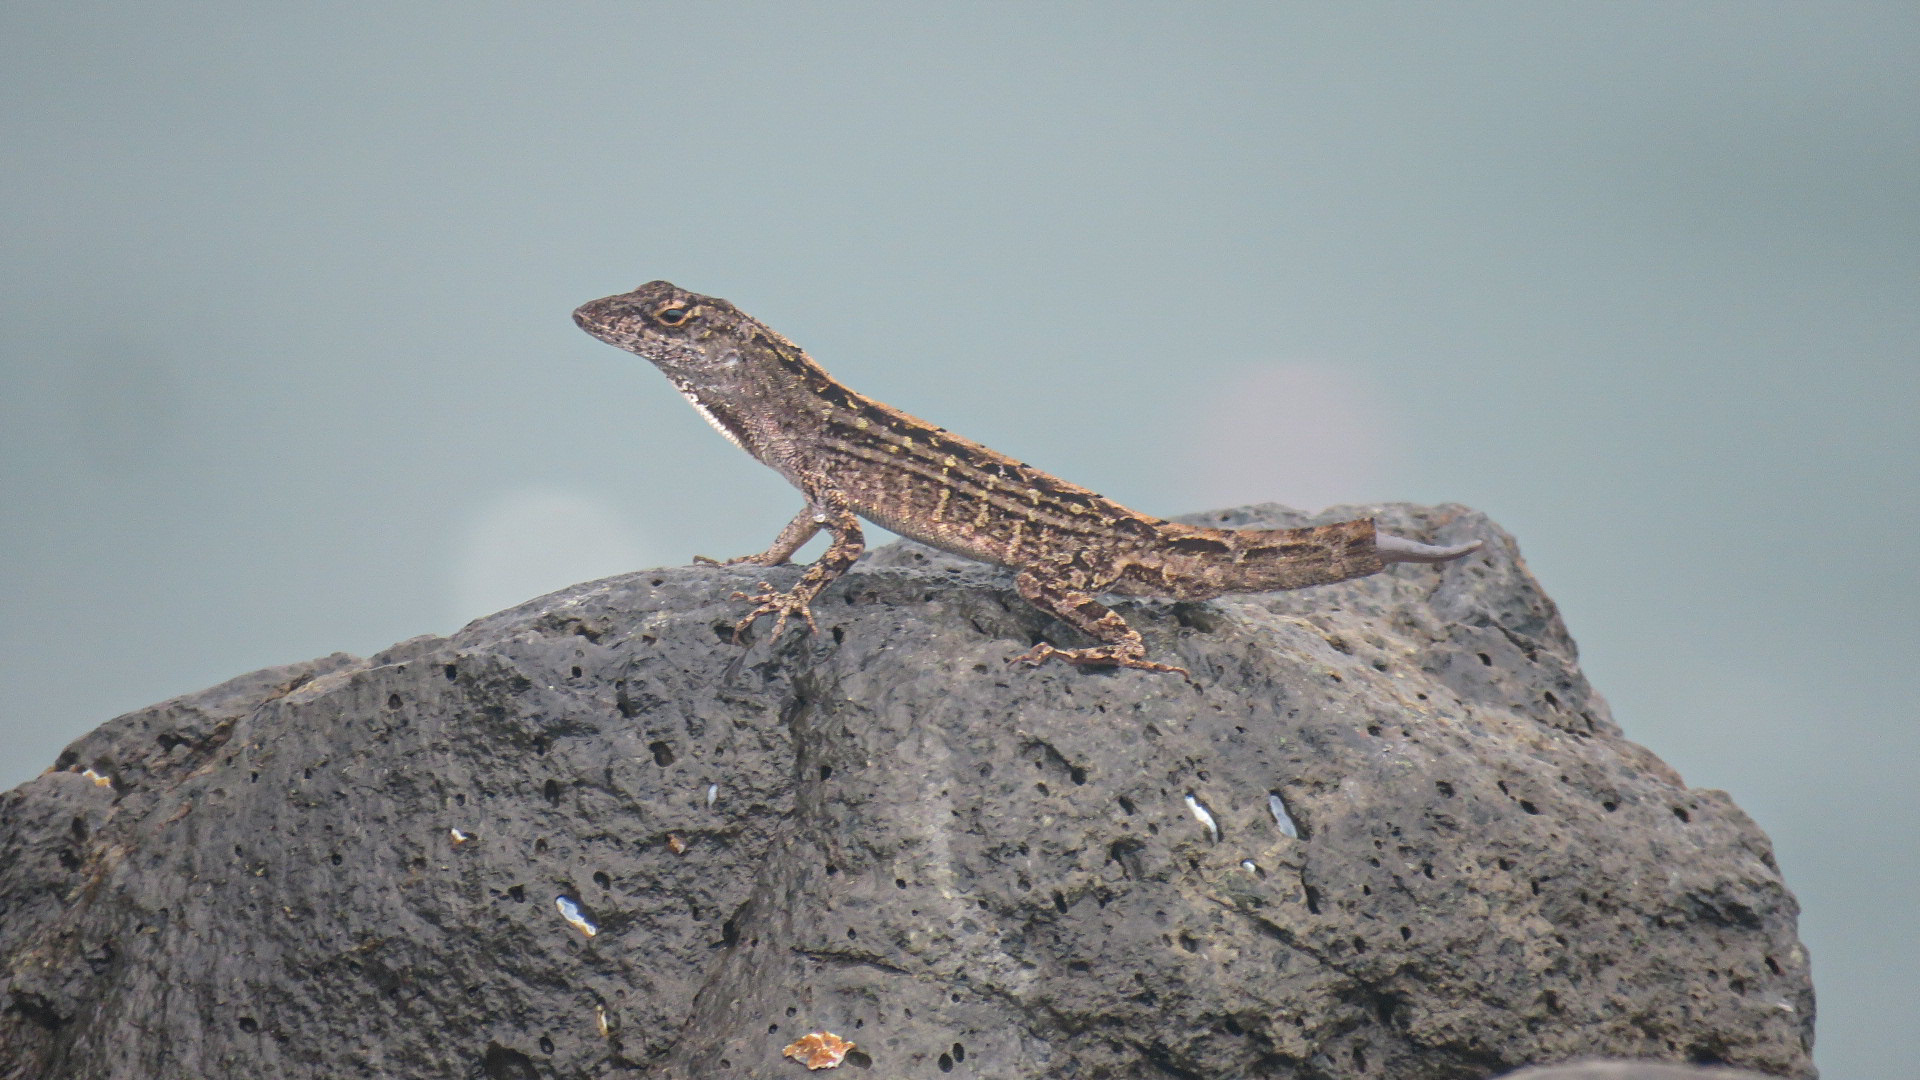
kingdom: Animalia
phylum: Chordata
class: Squamata
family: Dactyloidae
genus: Anolis
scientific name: Anolis sagrei
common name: Brown anole
